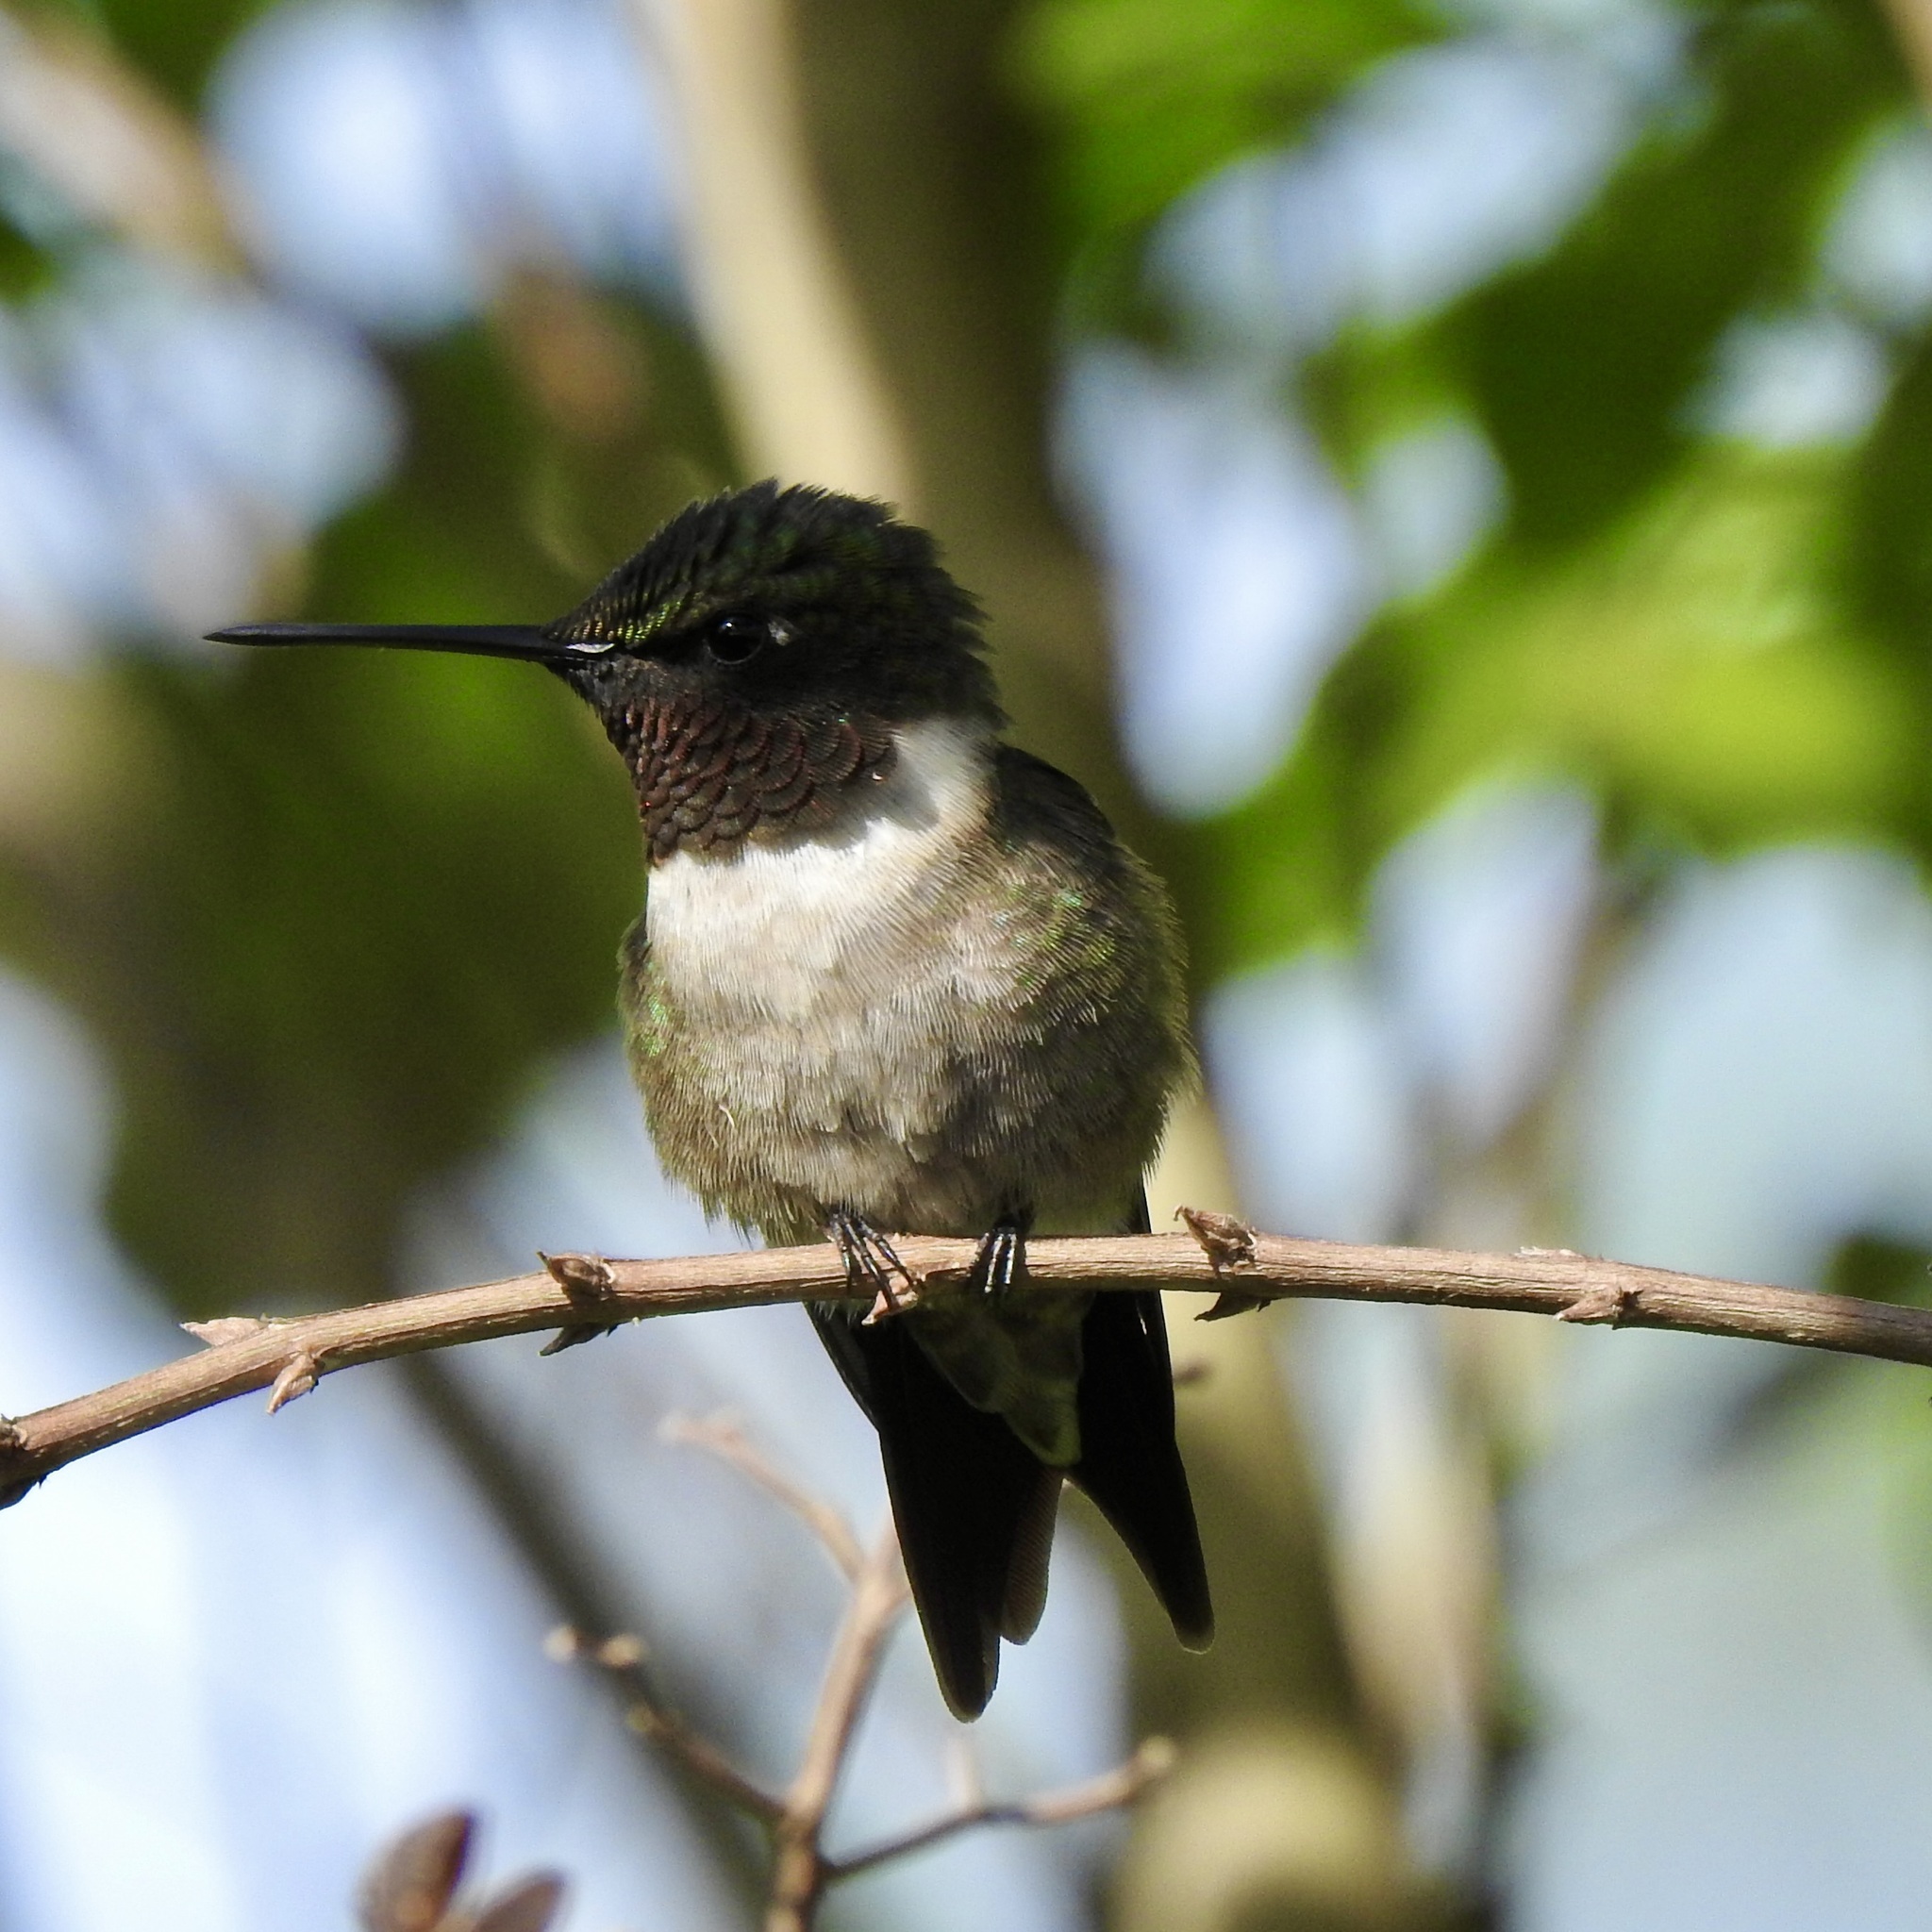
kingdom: Animalia
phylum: Chordata
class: Aves
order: Apodiformes
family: Trochilidae
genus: Archilochus
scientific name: Archilochus colubris
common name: Ruby-throated hummingbird
